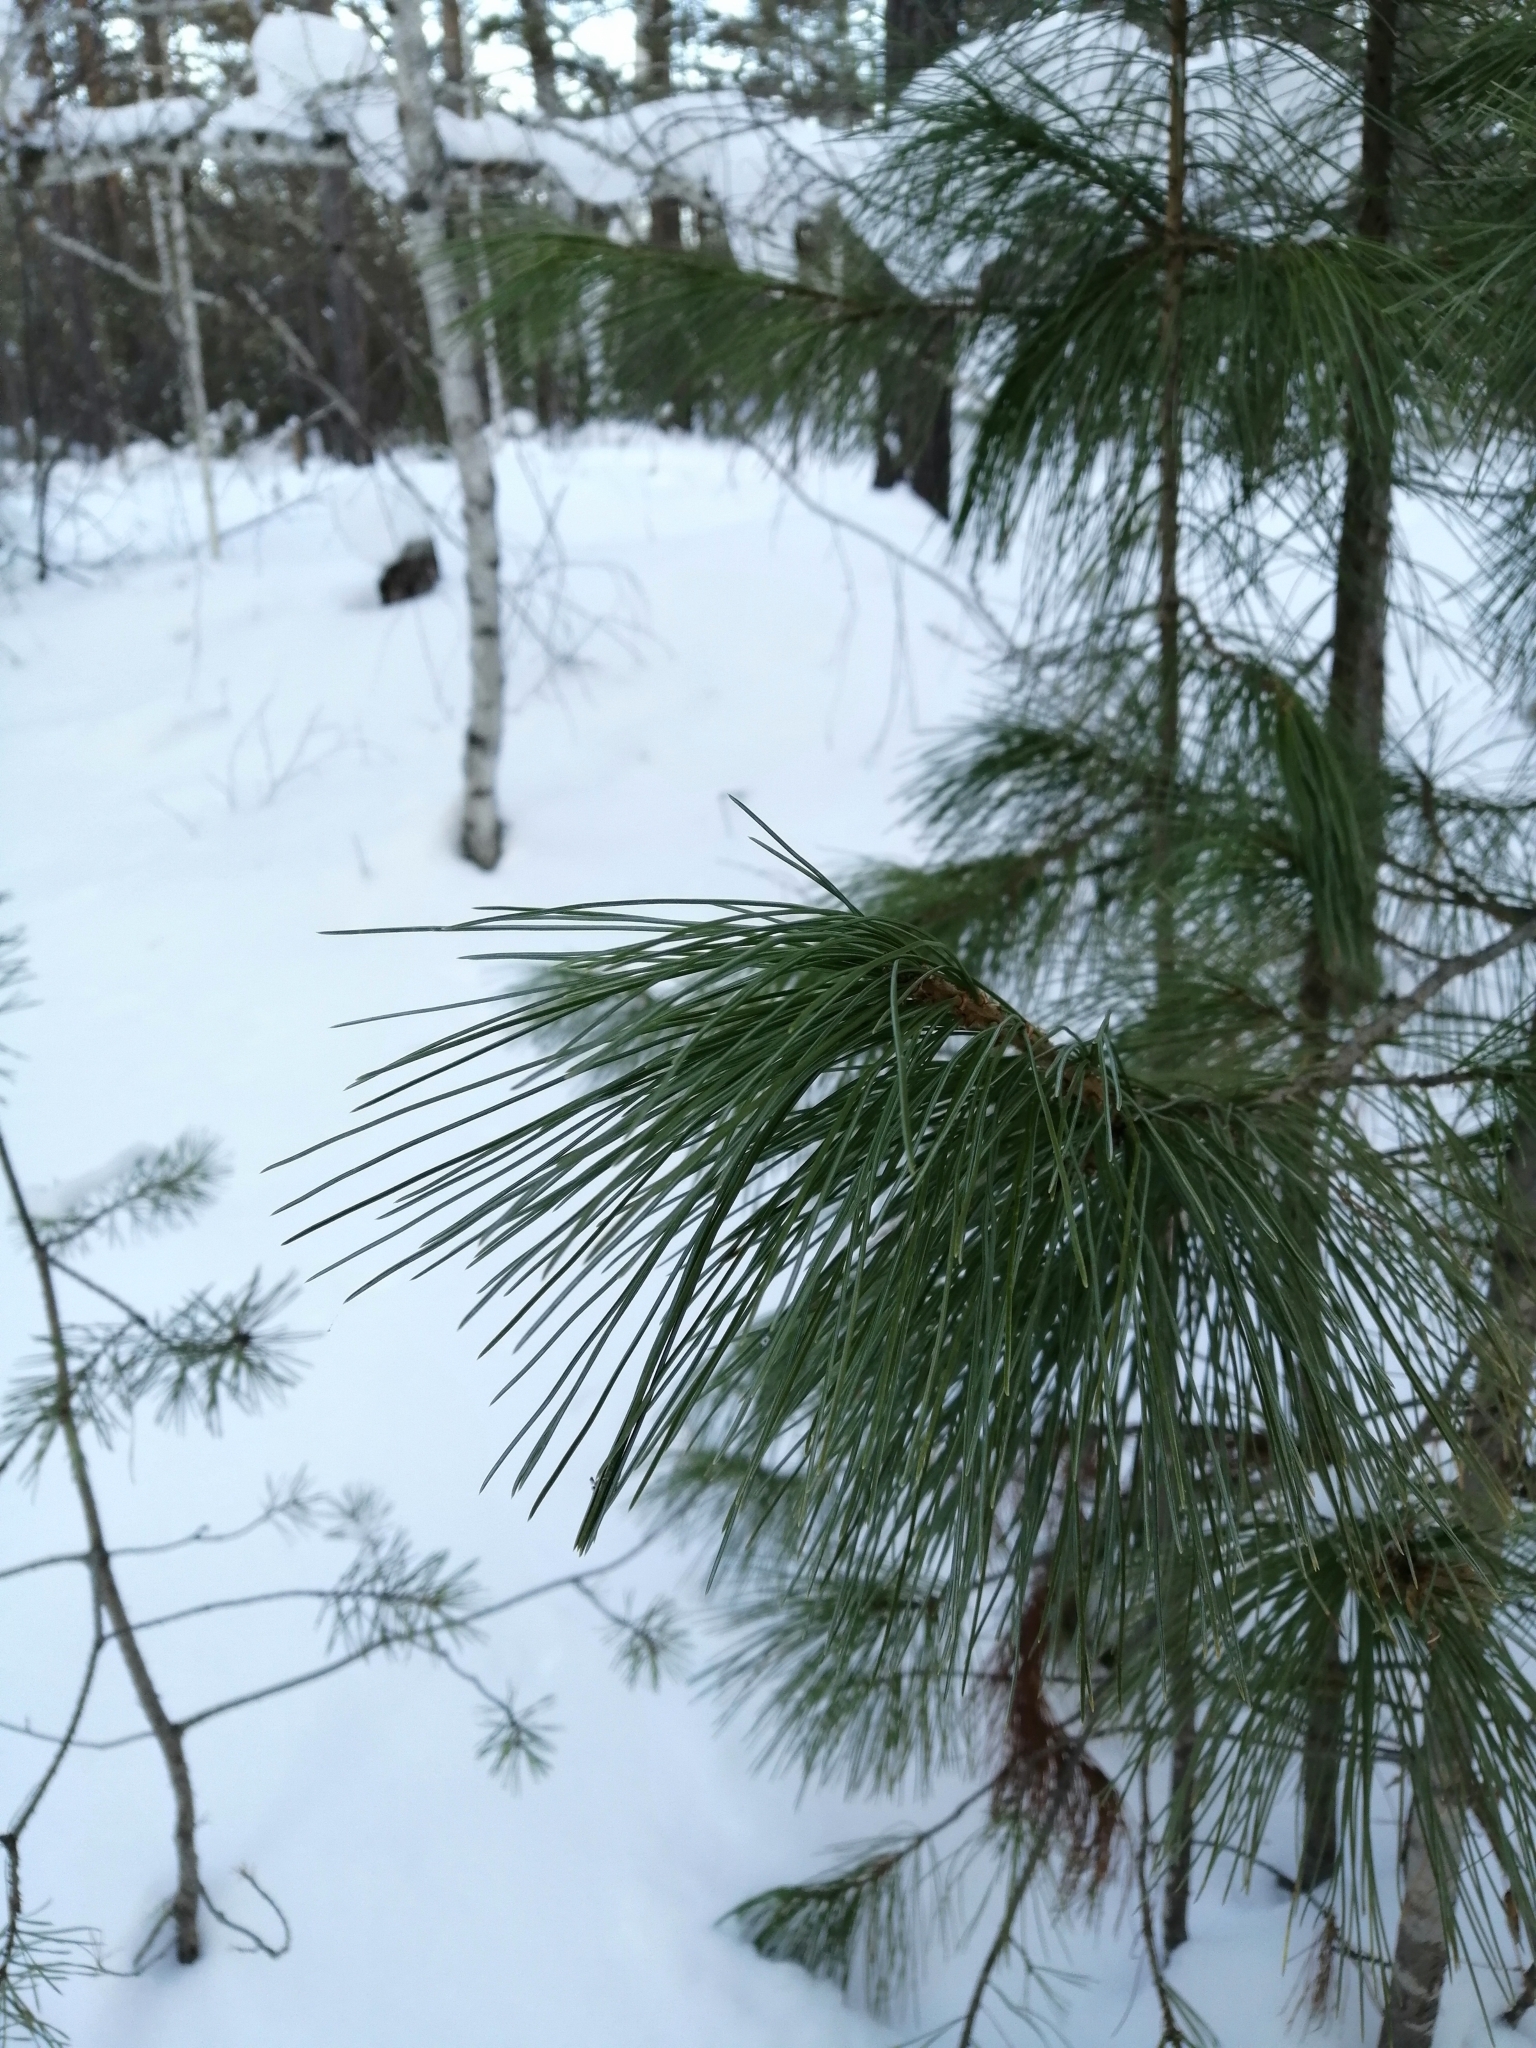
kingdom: Plantae
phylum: Tracheophyta
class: Pinopsida
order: Pinales
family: Pinaceae
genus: Pinus
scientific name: Pinus sibirica
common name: Siberian pine
